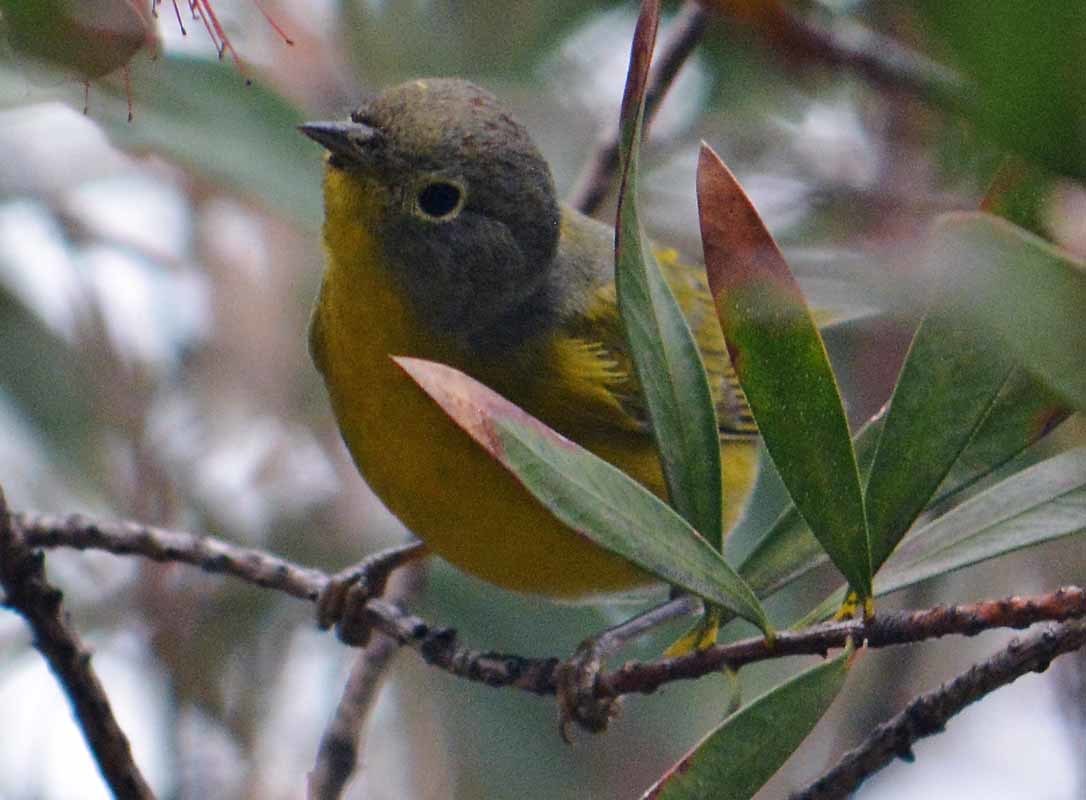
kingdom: Animalia
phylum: Chordata
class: Aves
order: Passeriformes
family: Parulidae
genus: Leiothlypis
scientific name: Leiothlypis ruficapilla
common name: Nashville warbler
